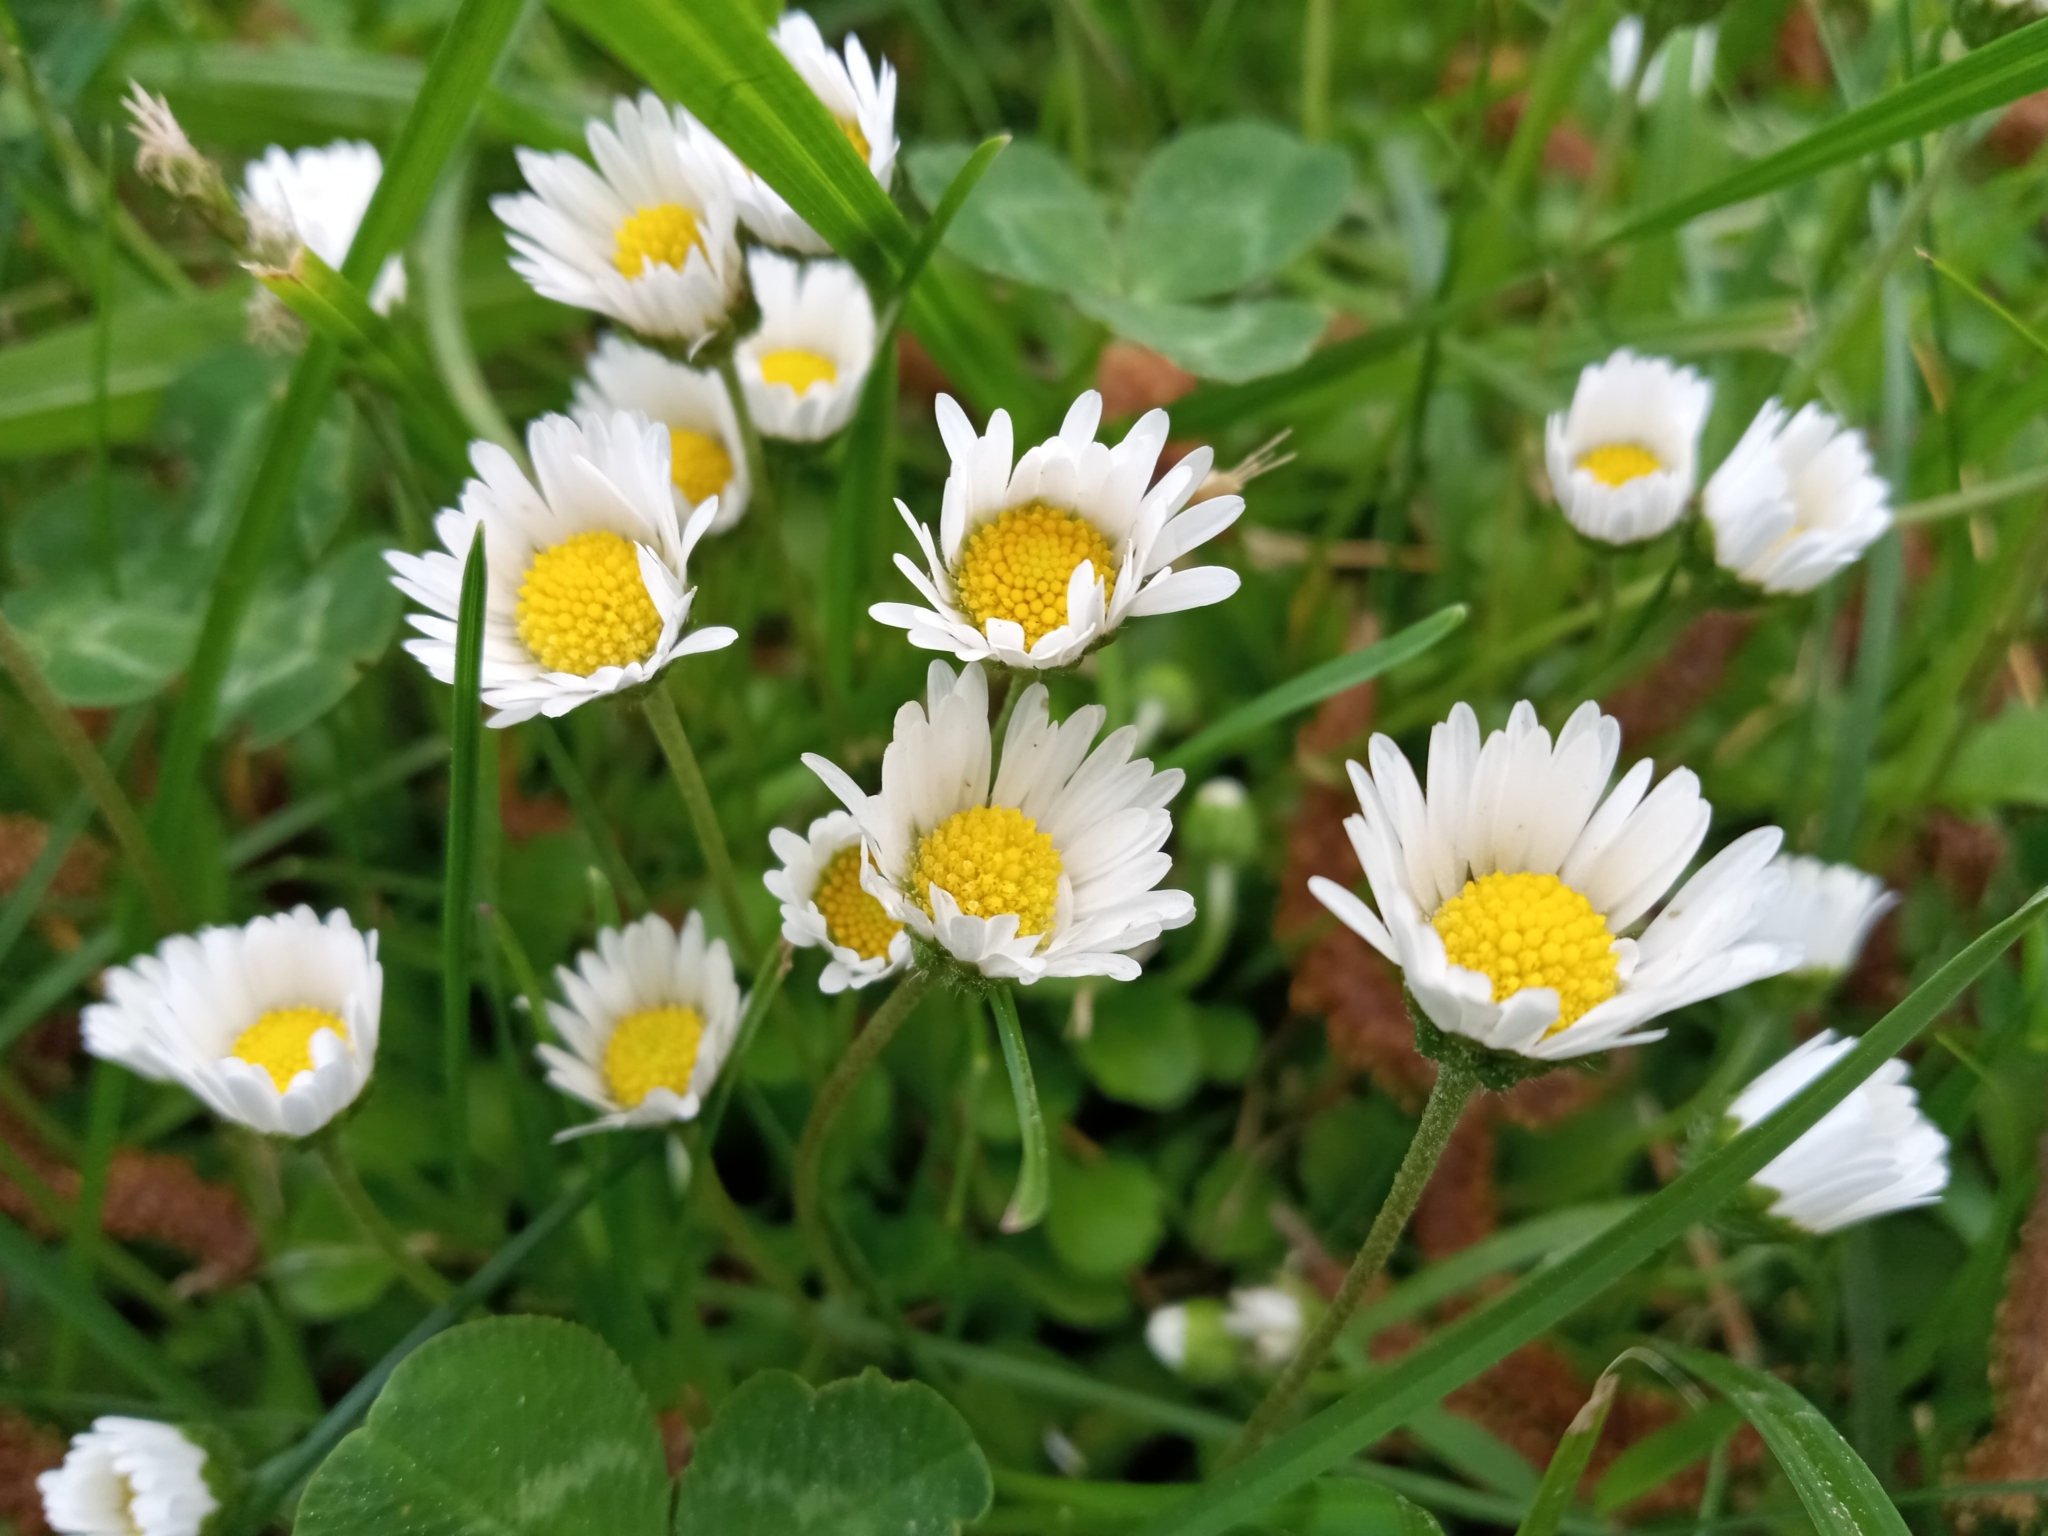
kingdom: Plantae
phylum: Tracheophyta
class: Magnoliopsida
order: Asterales
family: Asteraceae
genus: Bellis
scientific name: Bellis perennis
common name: Lawndaisy
